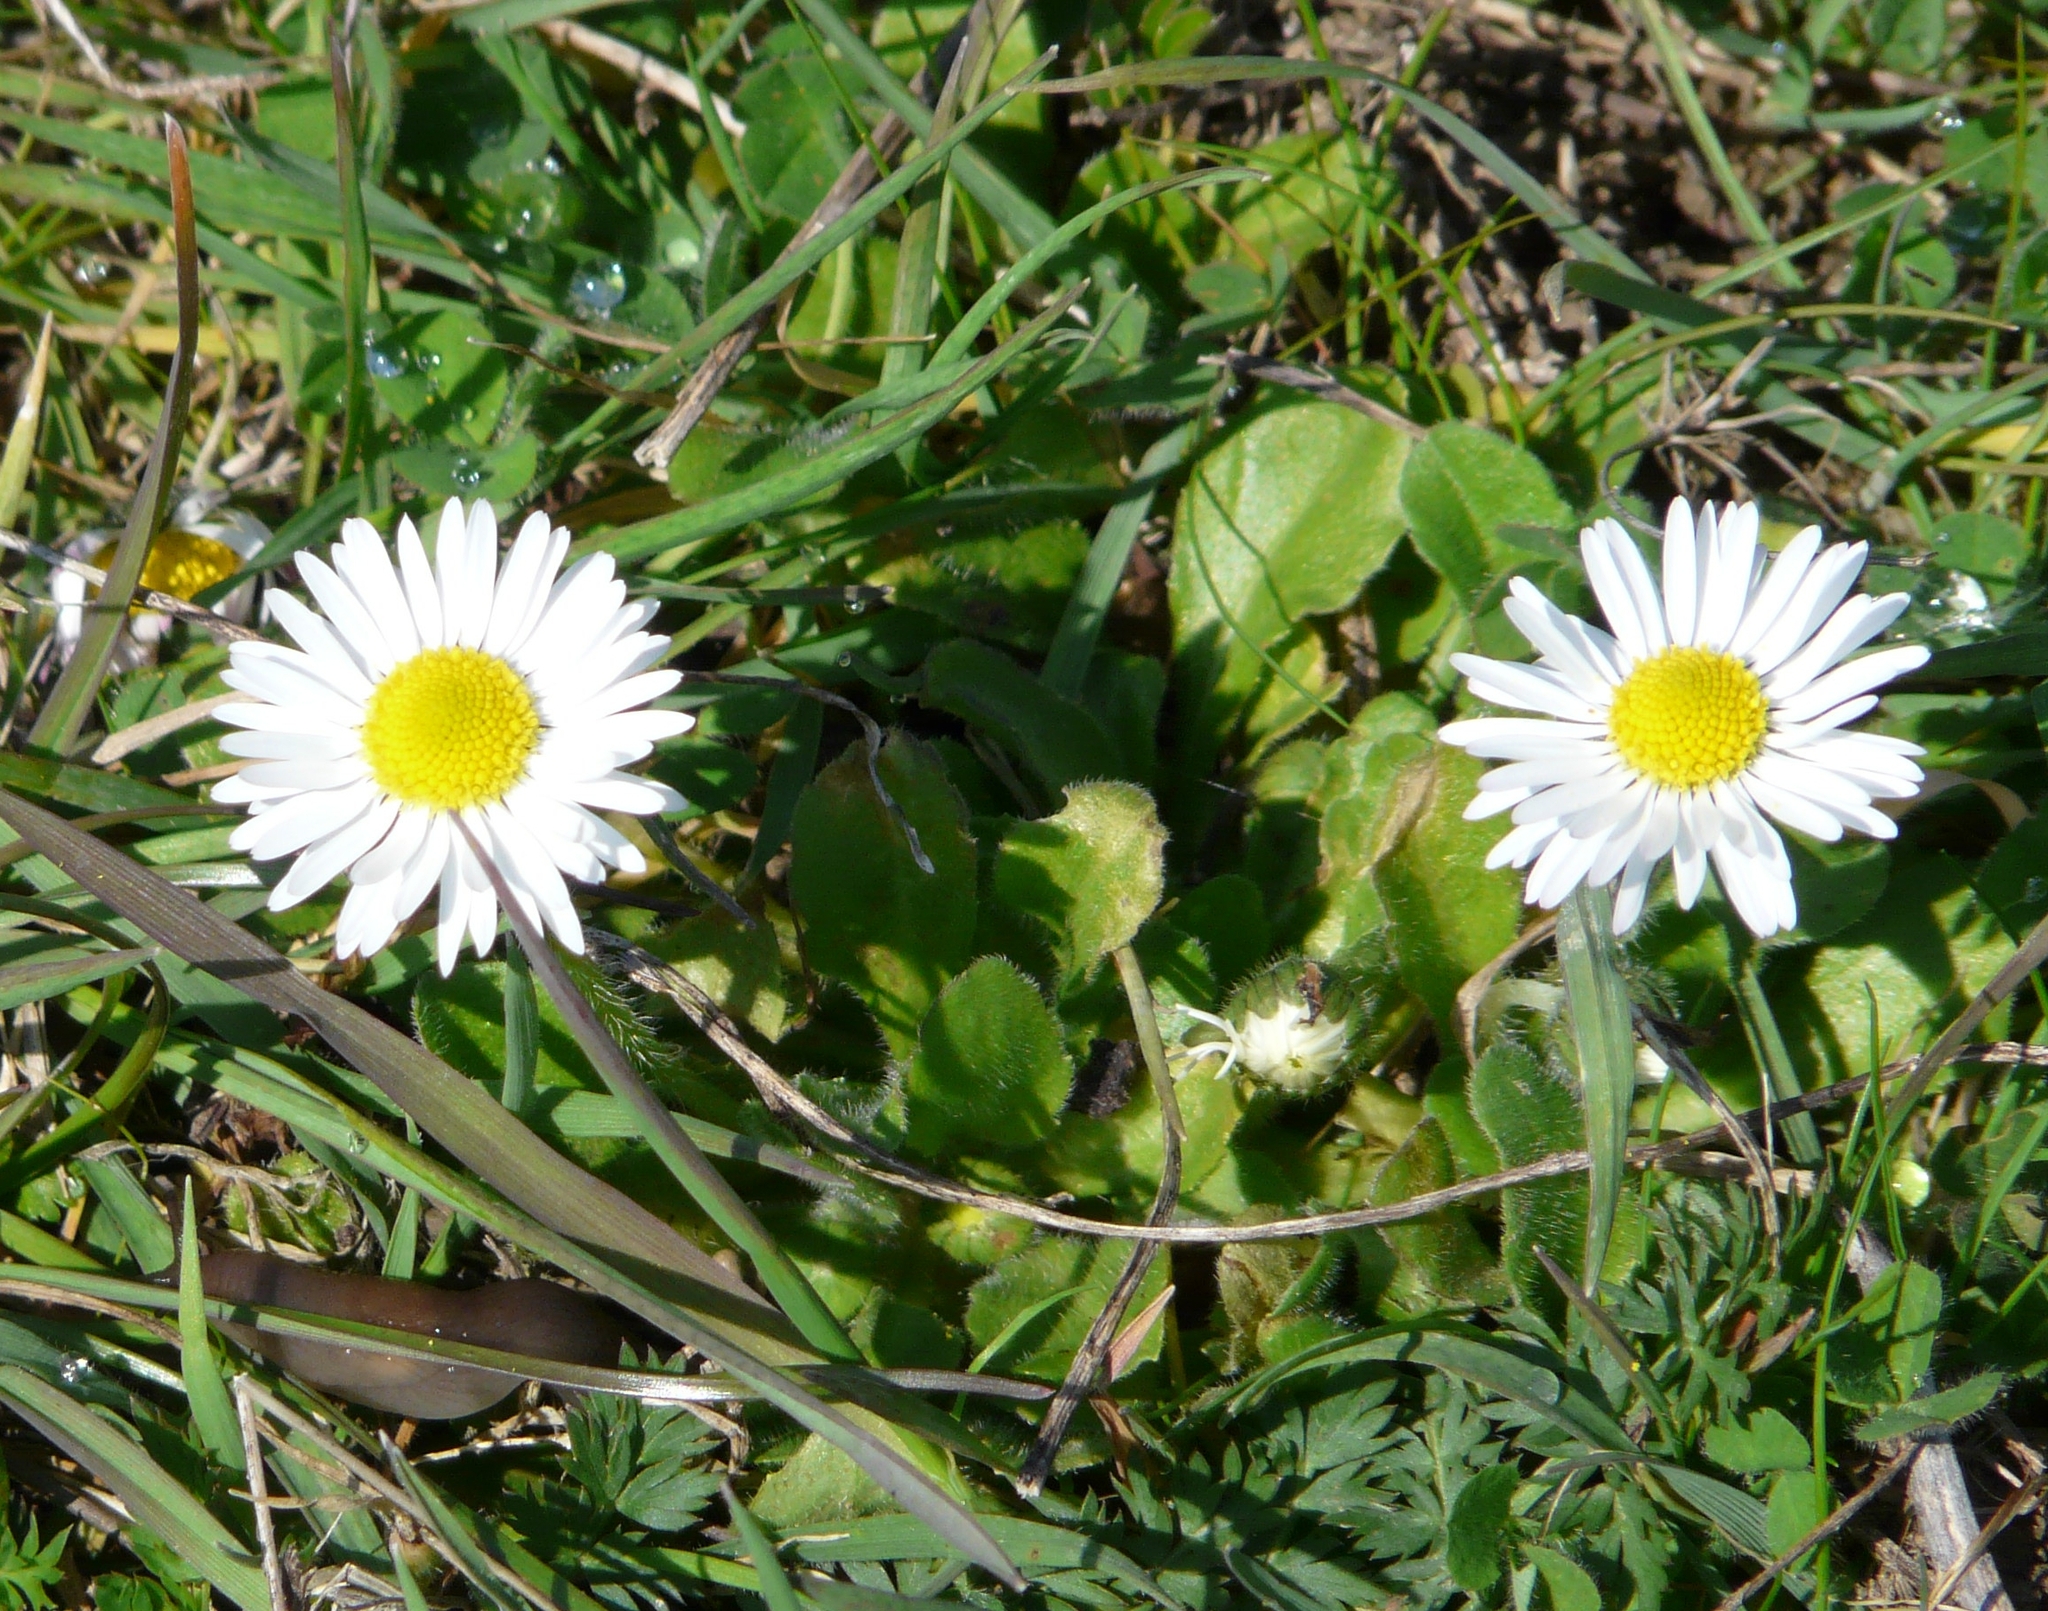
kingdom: Plantae
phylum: Tracheophyta
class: Magnoliopsida
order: Asterales
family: Asteraceae
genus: Bellis
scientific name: Bellis perennis
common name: Lawndaisy
